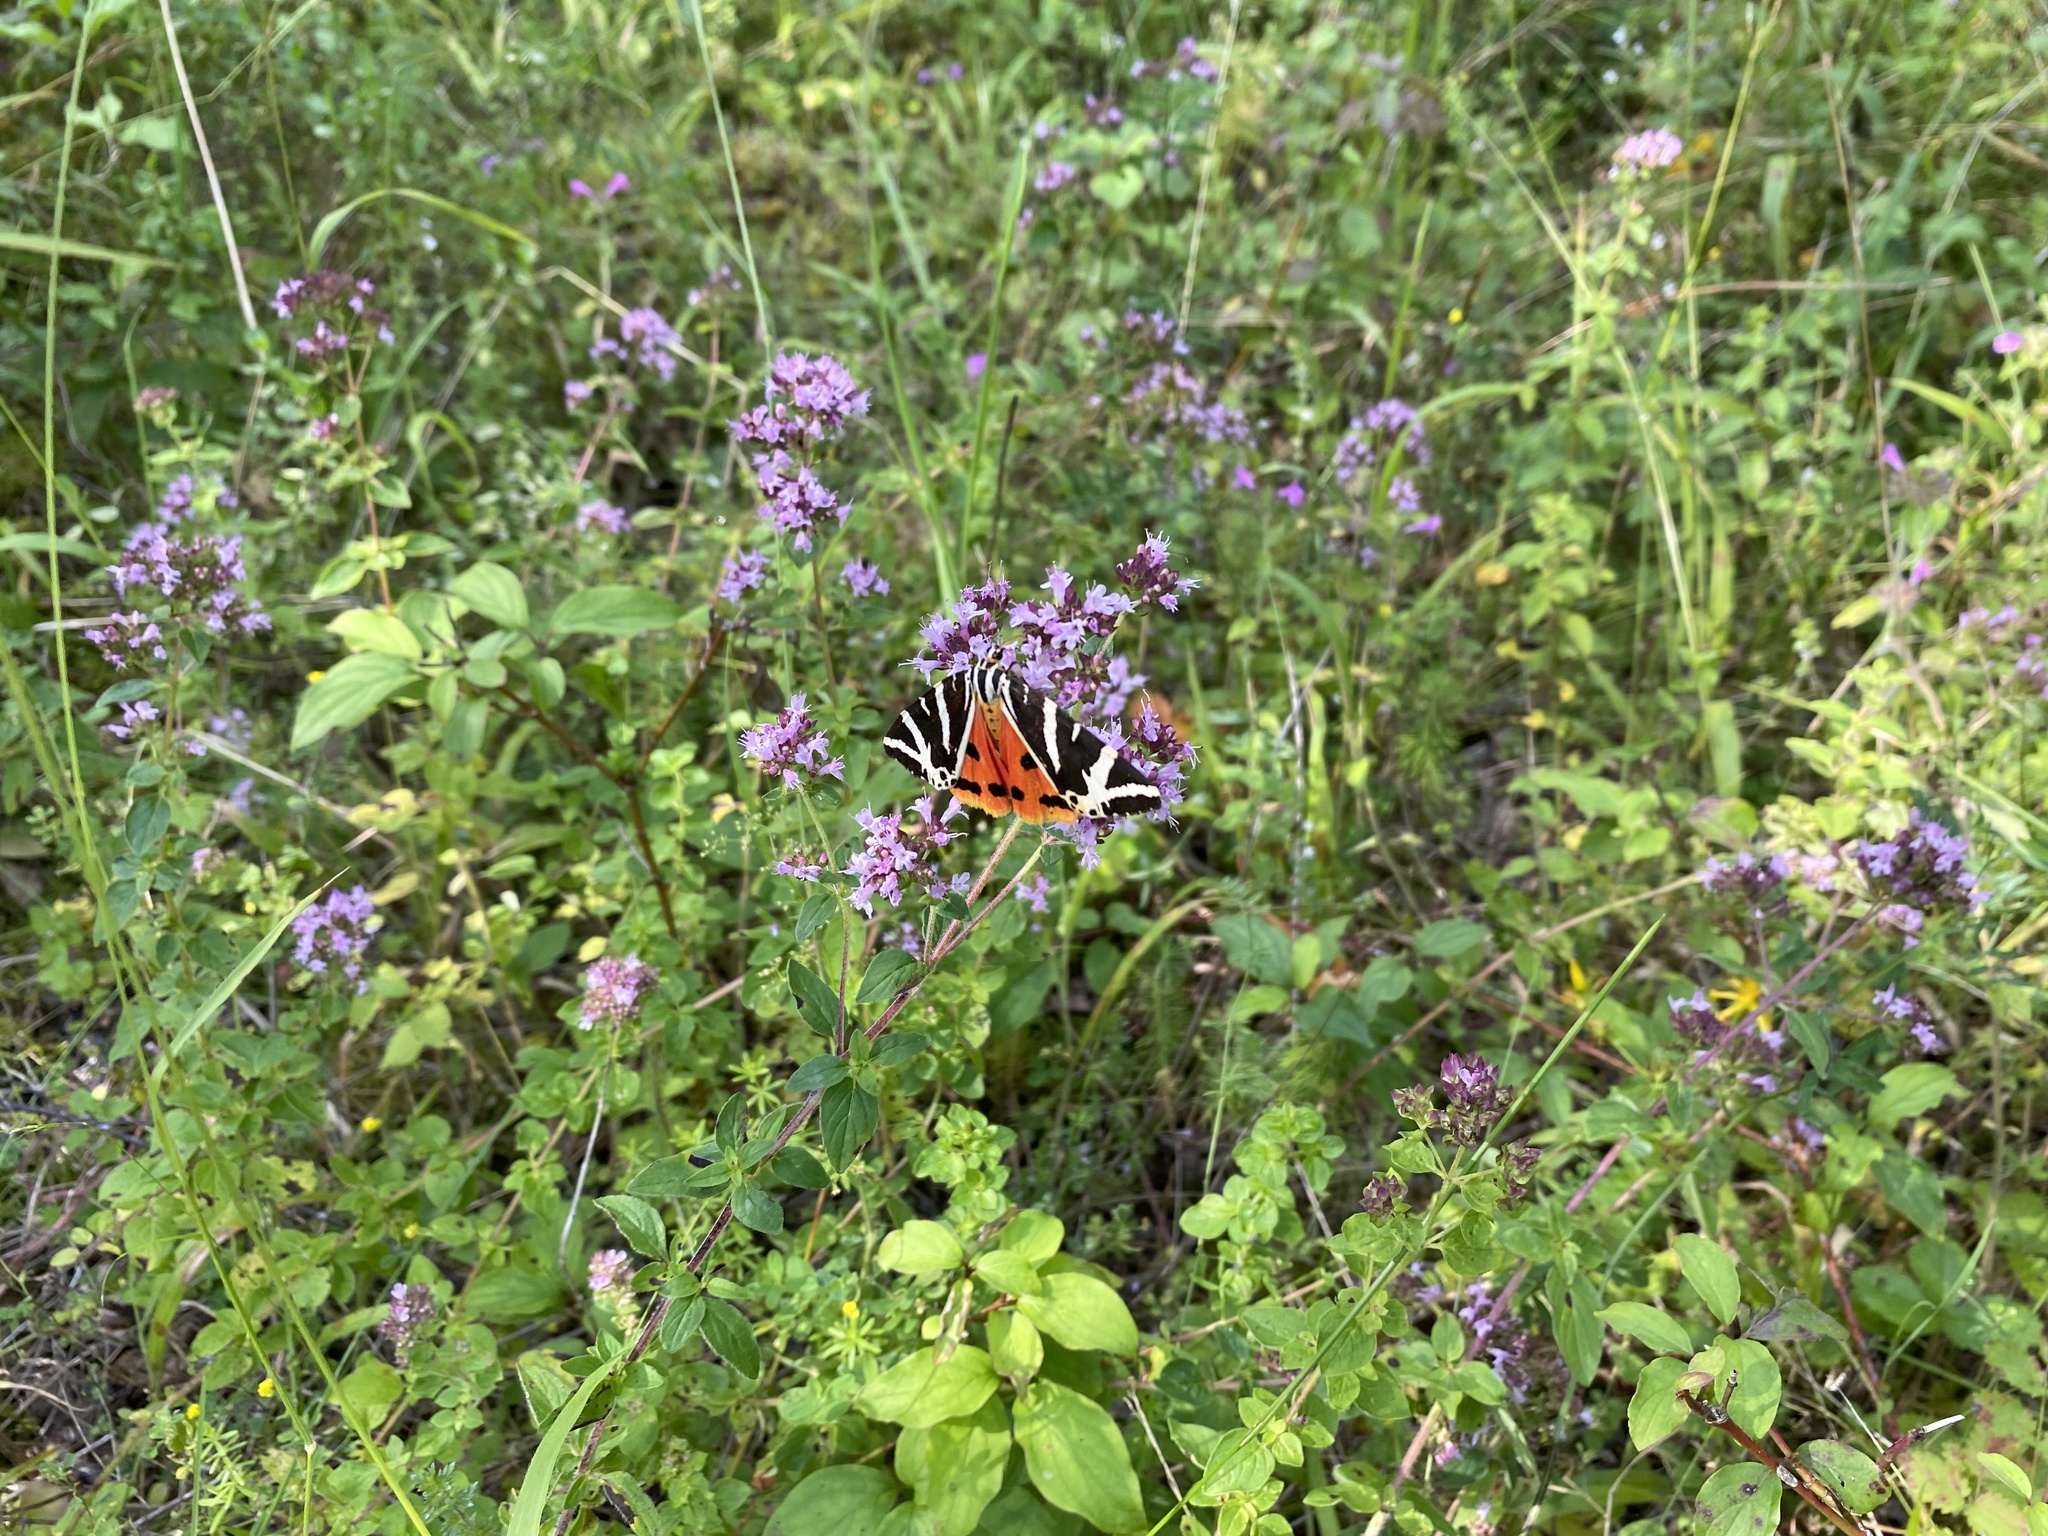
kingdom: Animalia
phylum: Arthropoda
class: Insecta
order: Lepidoptera
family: Erebidae
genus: Euplagia
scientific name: Euplagia quadripunctaria
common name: Jersey tiger
